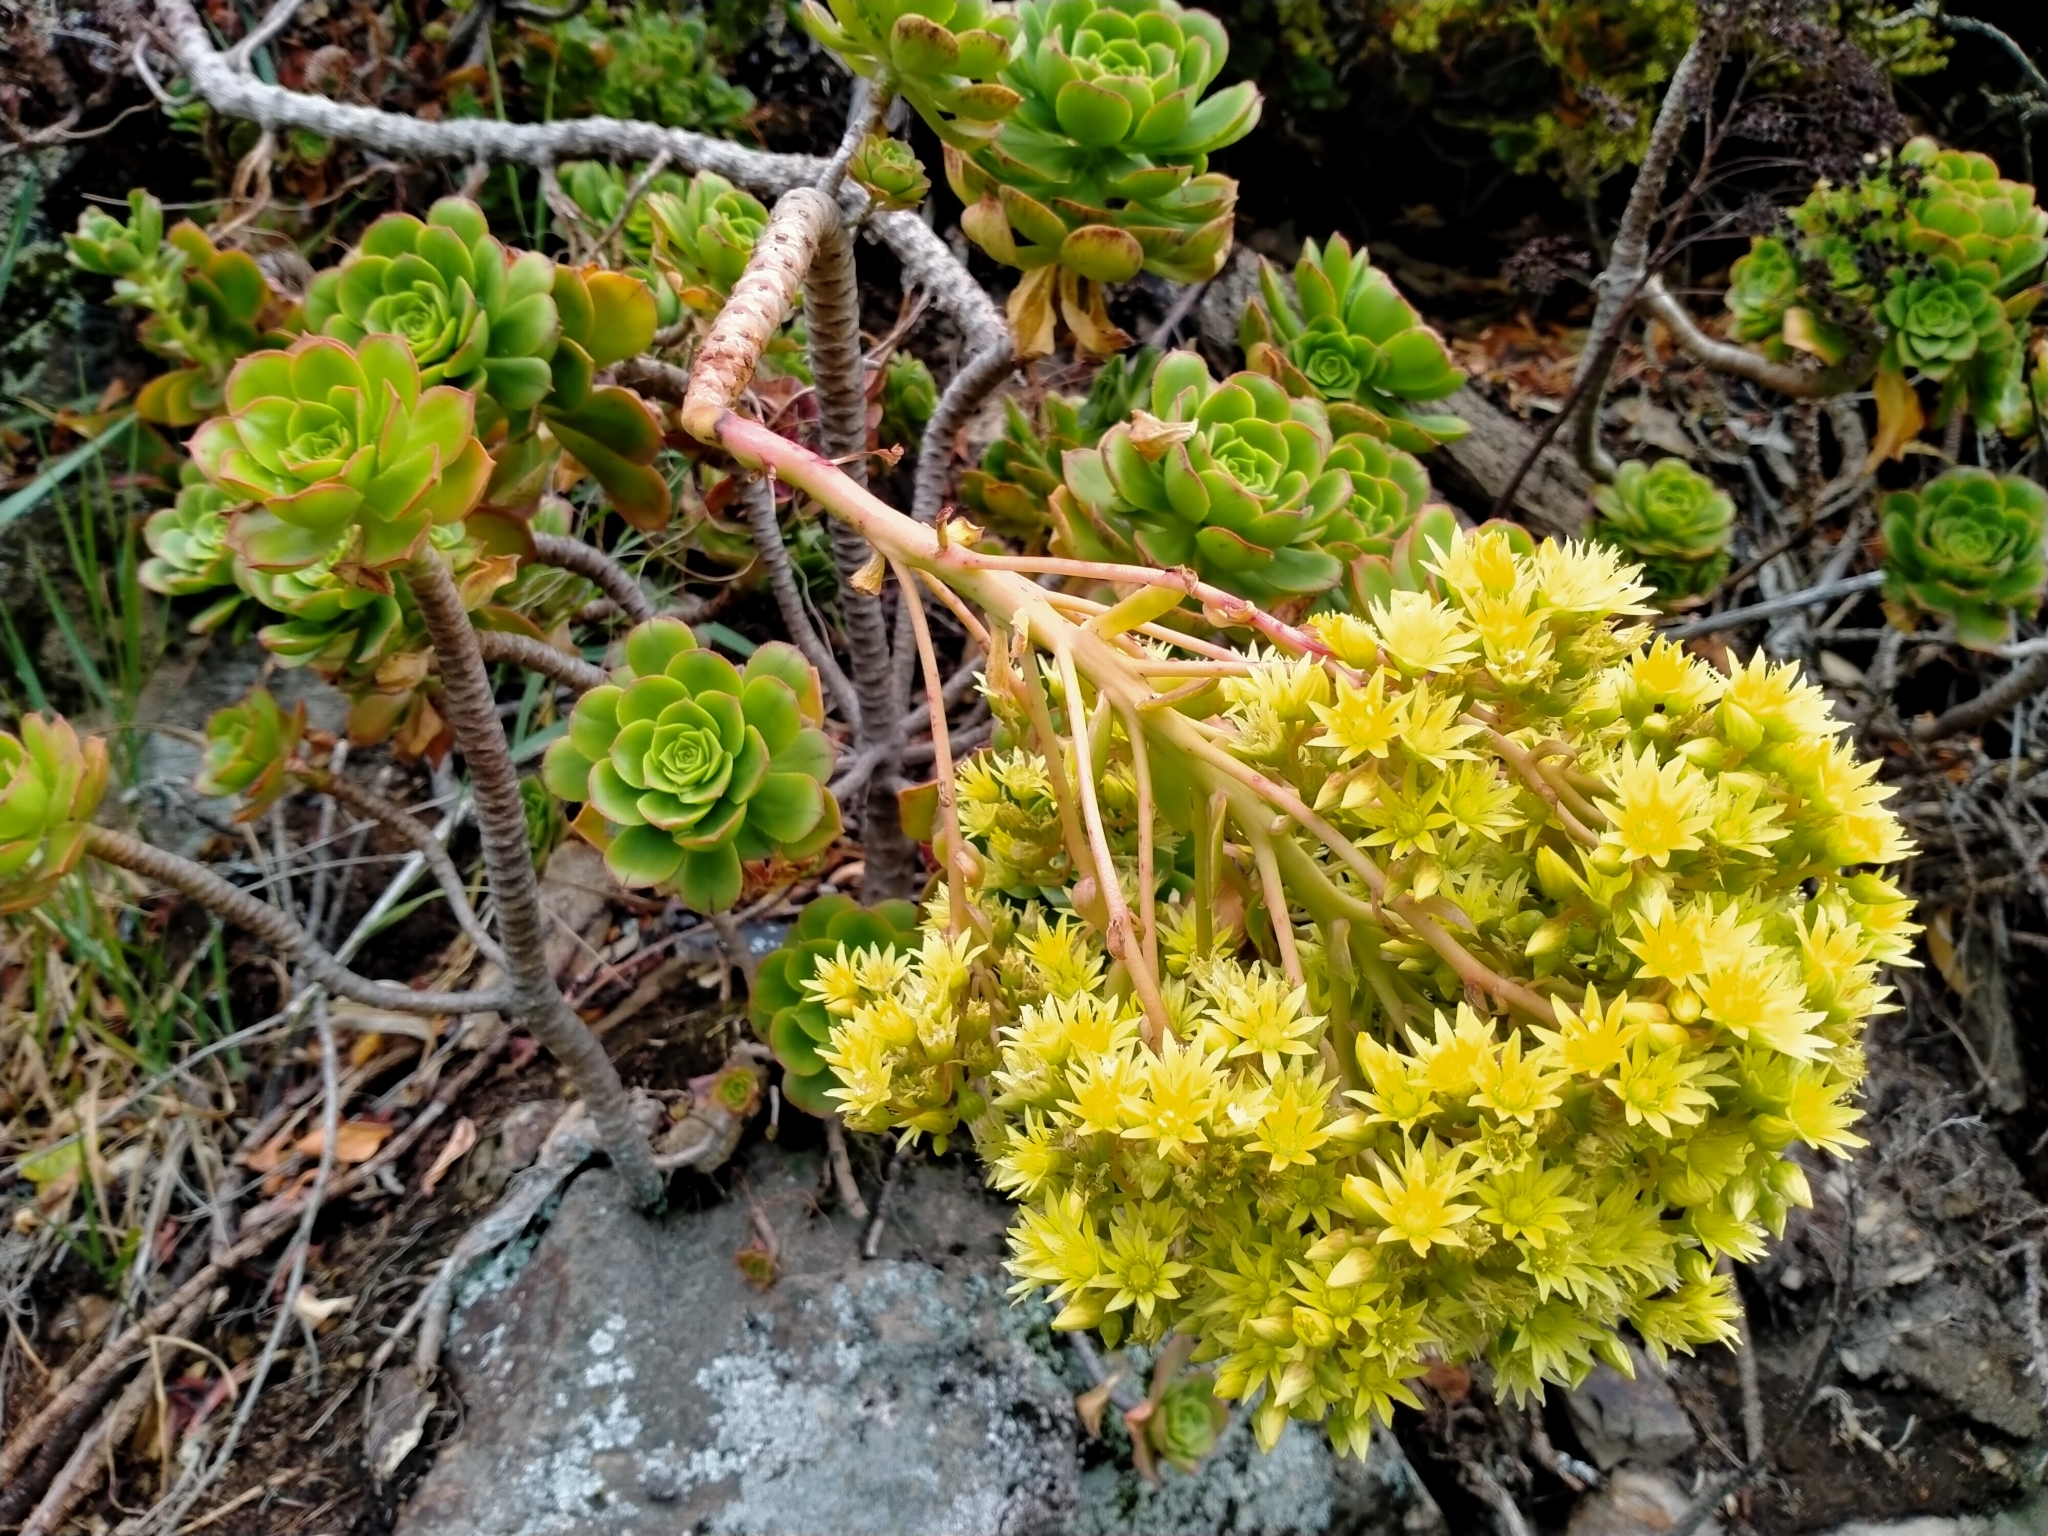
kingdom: Plantae
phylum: Tracheophyta
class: Magnoliopsida
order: Saxifragales
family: Crassulaceae
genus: Aeonium
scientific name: Aeonium arboreum
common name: Tree aeonium
